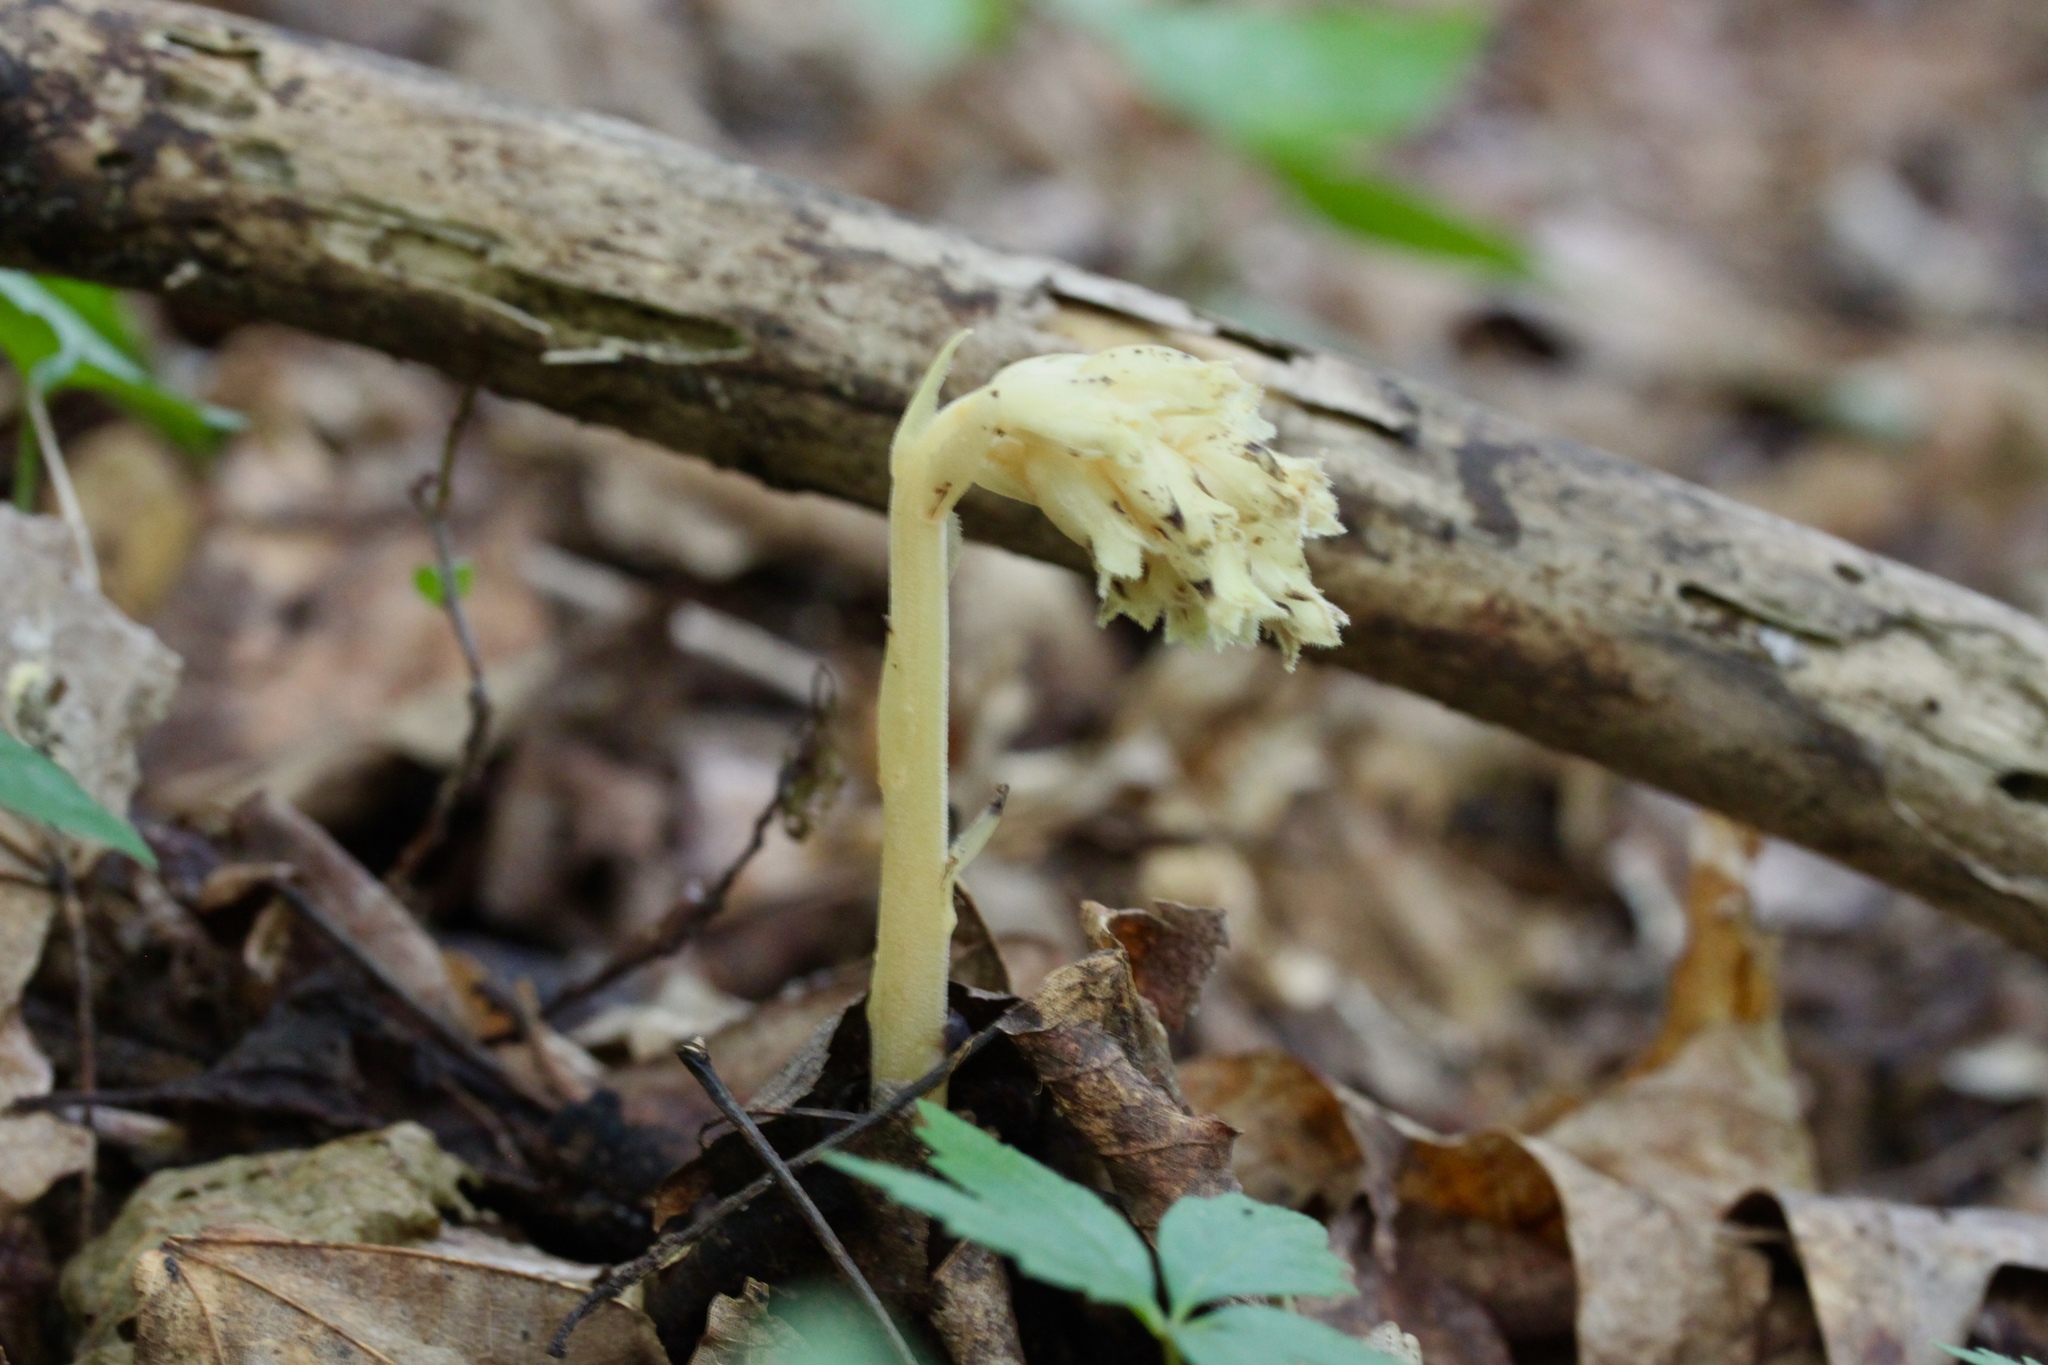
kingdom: Plantae
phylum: Tracheophyta
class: Magnoliopsida
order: Ericales
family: Ericaceae
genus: Hypopitys
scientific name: Hypopitys monotropa
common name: Yellow bird's-nest
